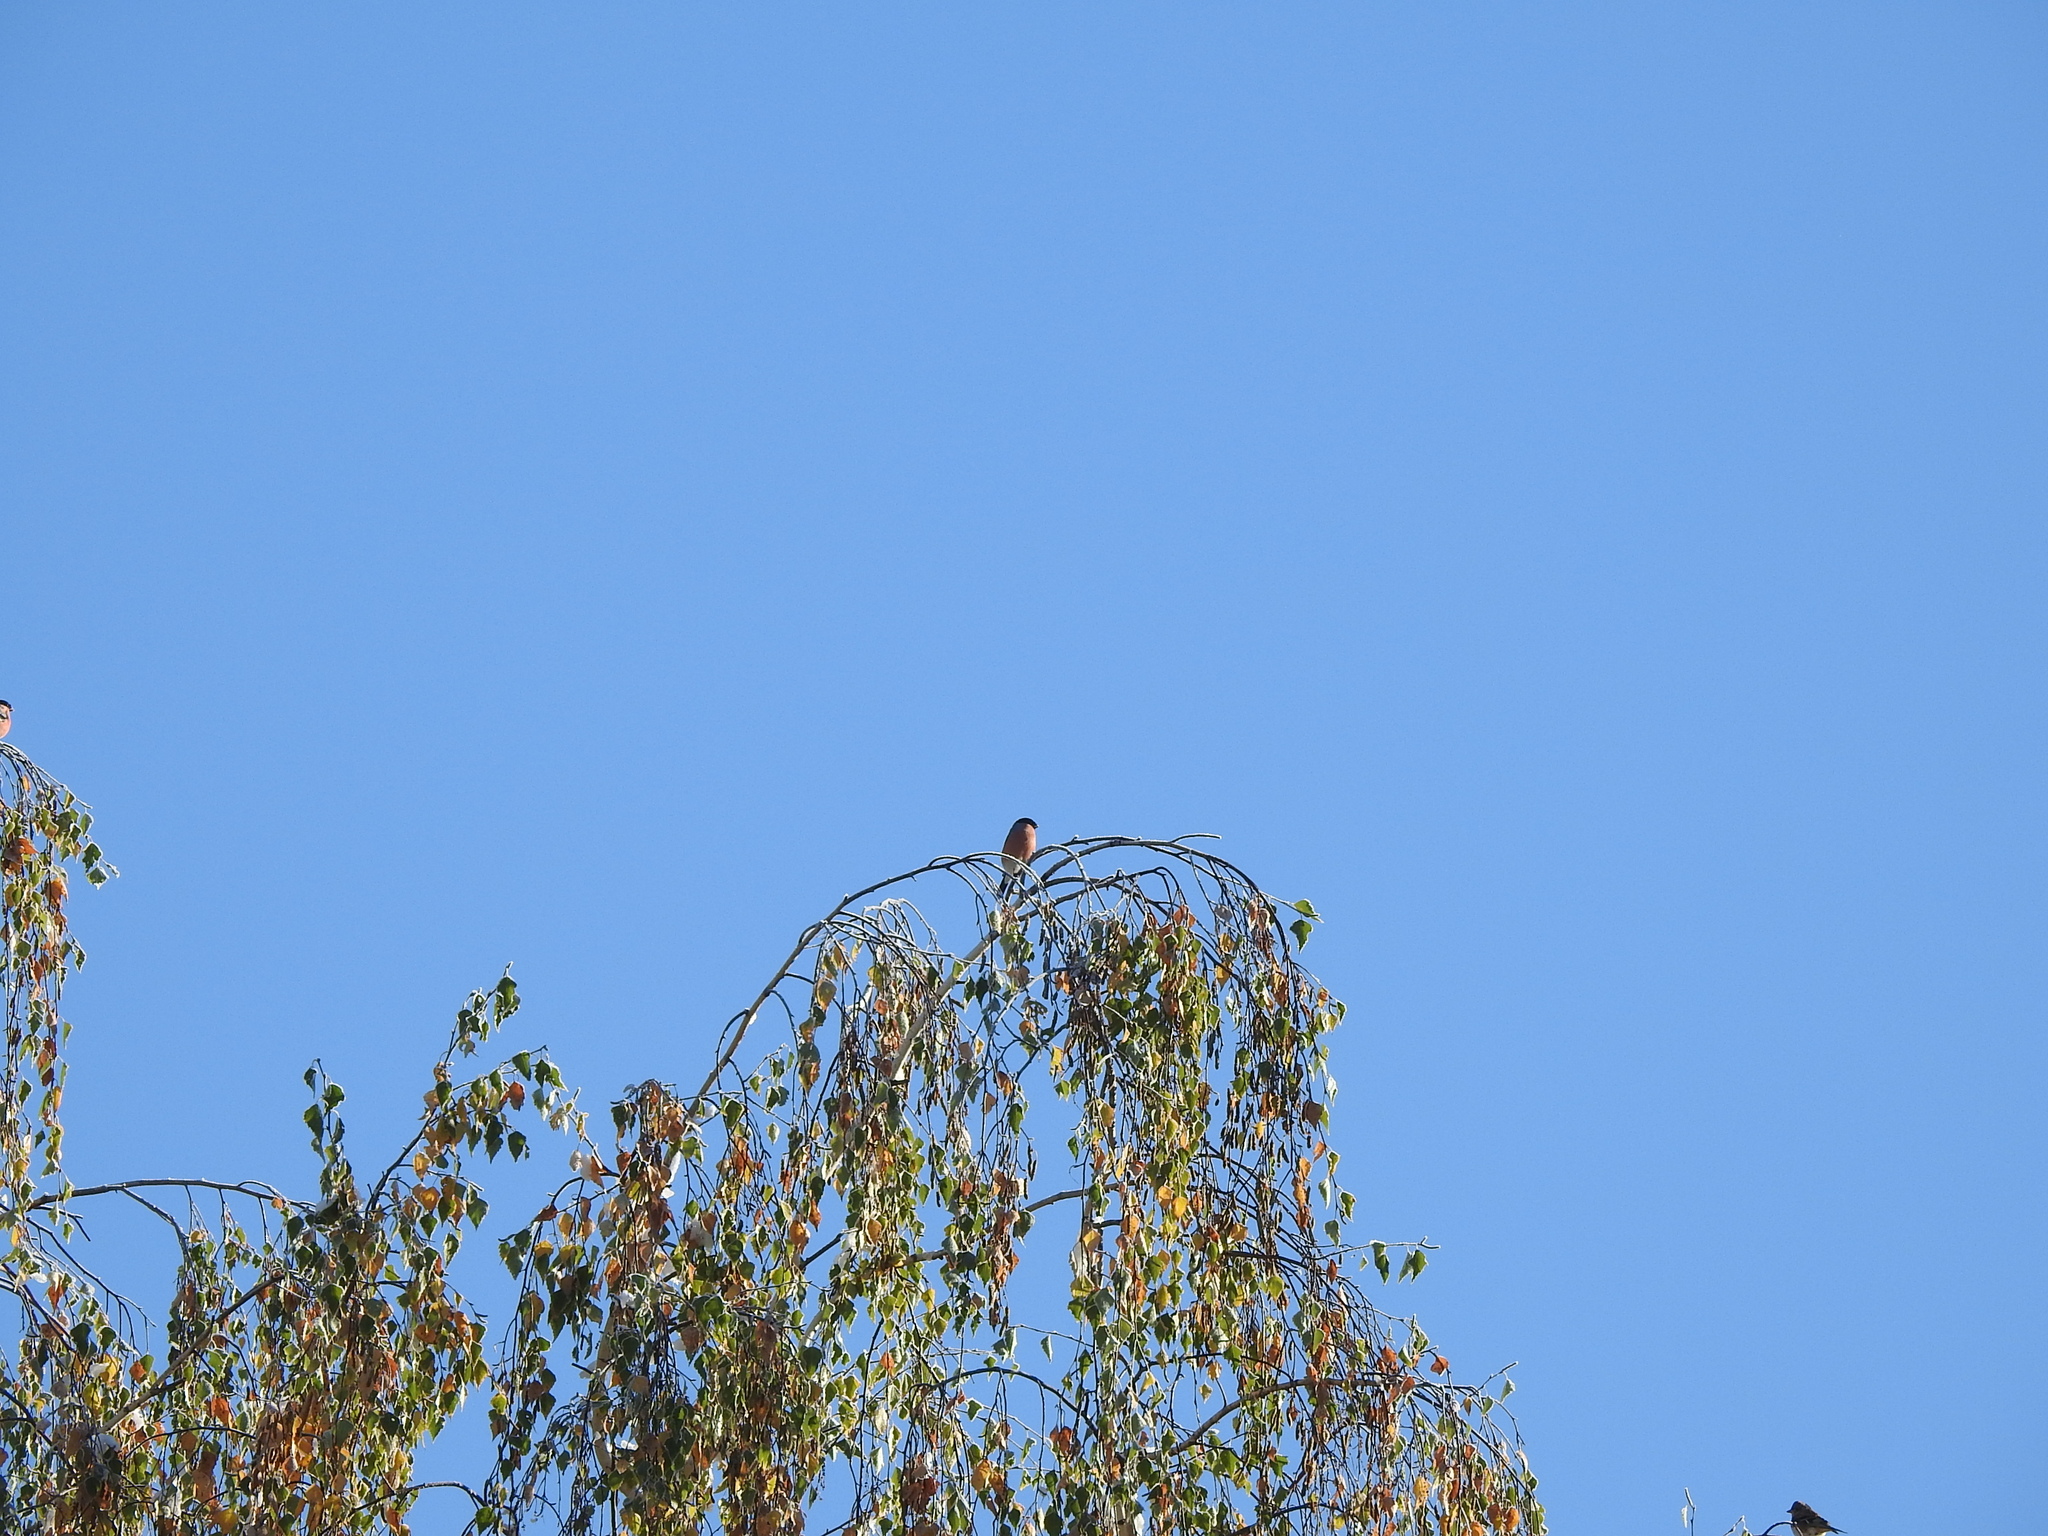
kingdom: Animalia
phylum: Chordata
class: Aves
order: Passeriformes
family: Fringillidae
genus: Pyrrhula
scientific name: Pyrrhula pyrrhula
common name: Eurasian bullfinch
